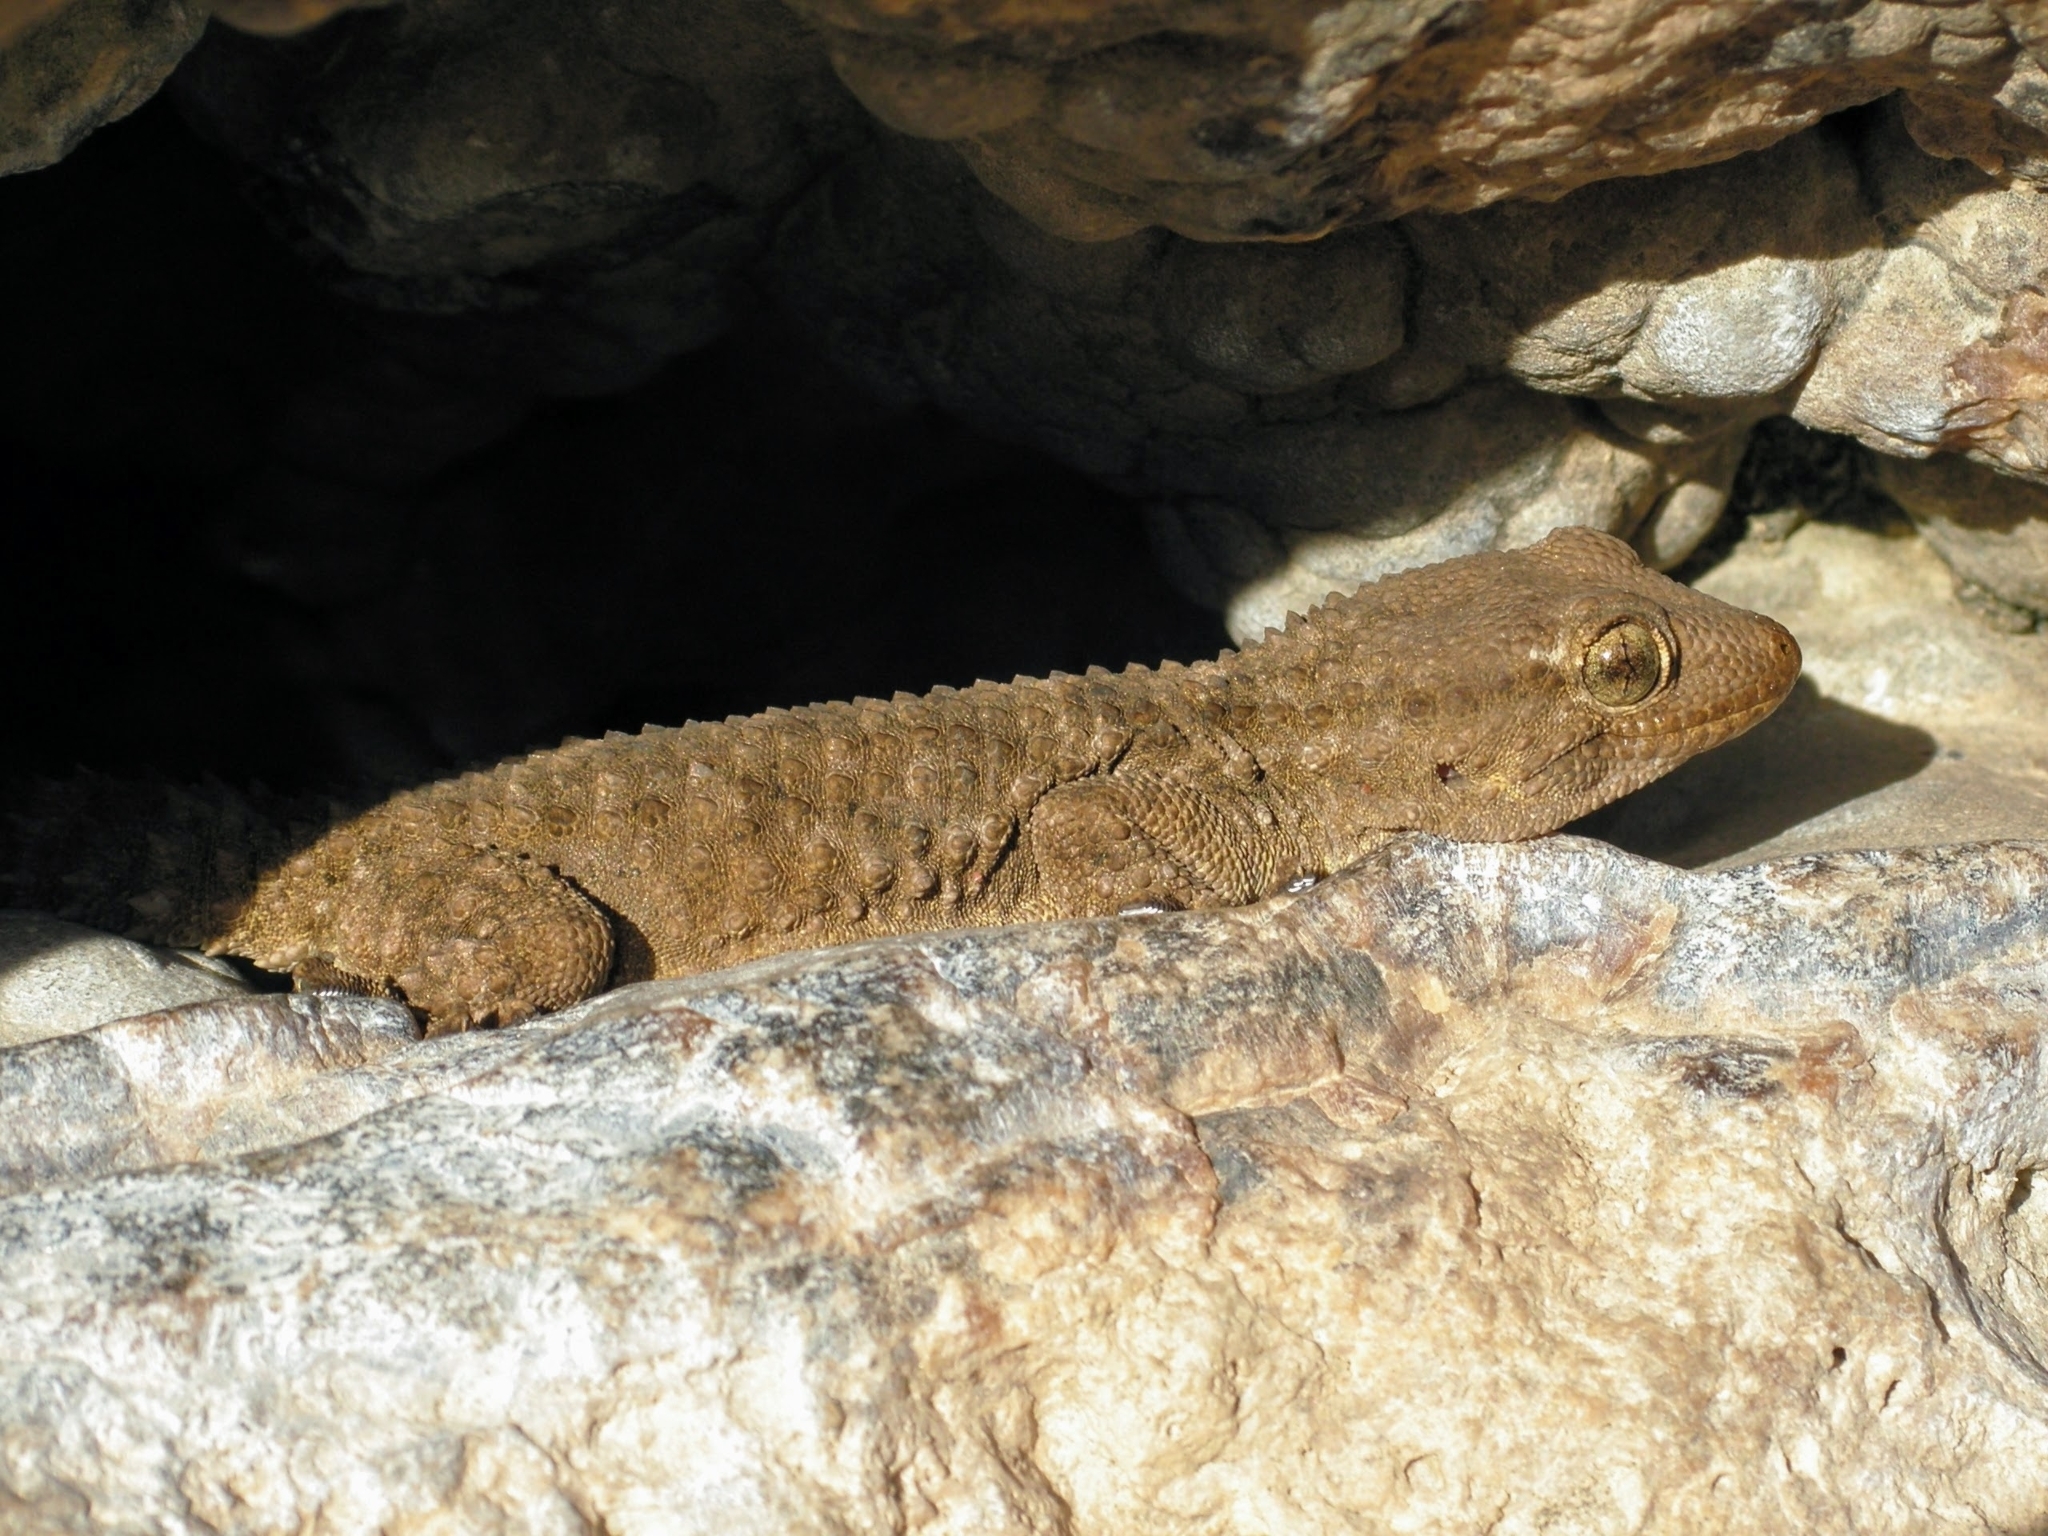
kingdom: Animalia
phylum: Chordata
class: Squamata
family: Phyllodactylidae
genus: Tarentola
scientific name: Tarentola mauritanica
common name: Moorish gecko
